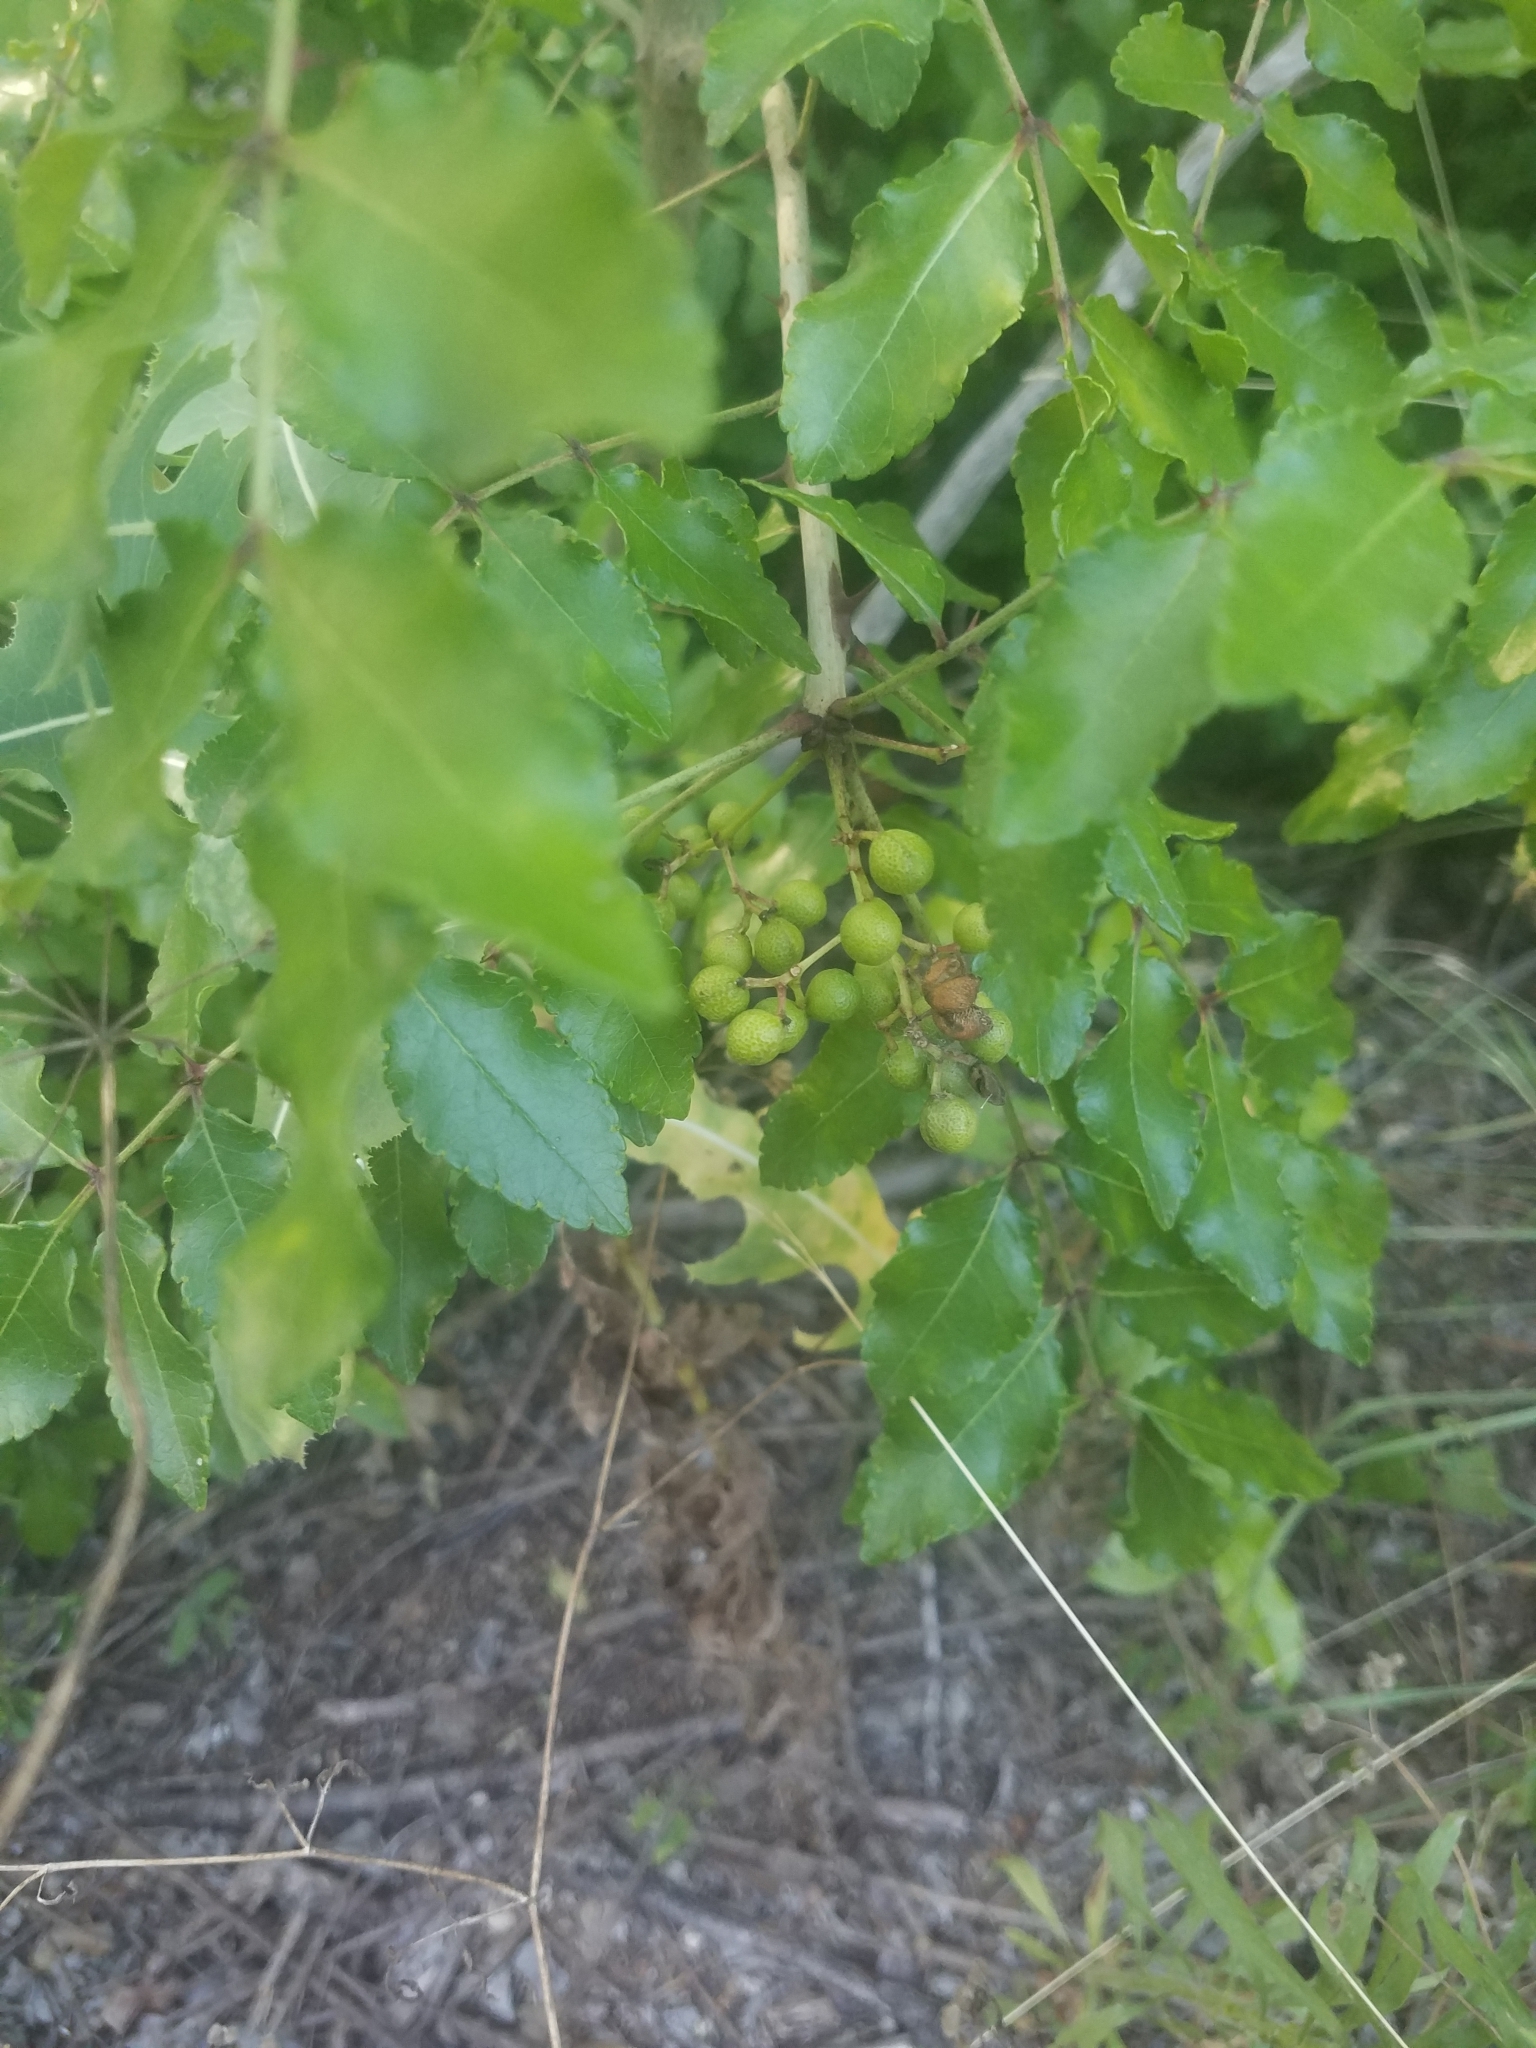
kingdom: Plantae
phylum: Tracheophyta
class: Magnoliopsida
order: Sapindales
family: Rutaceae
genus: Zanthoxylum
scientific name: Zanthoxylum clava-herculis
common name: Hercules'-club
